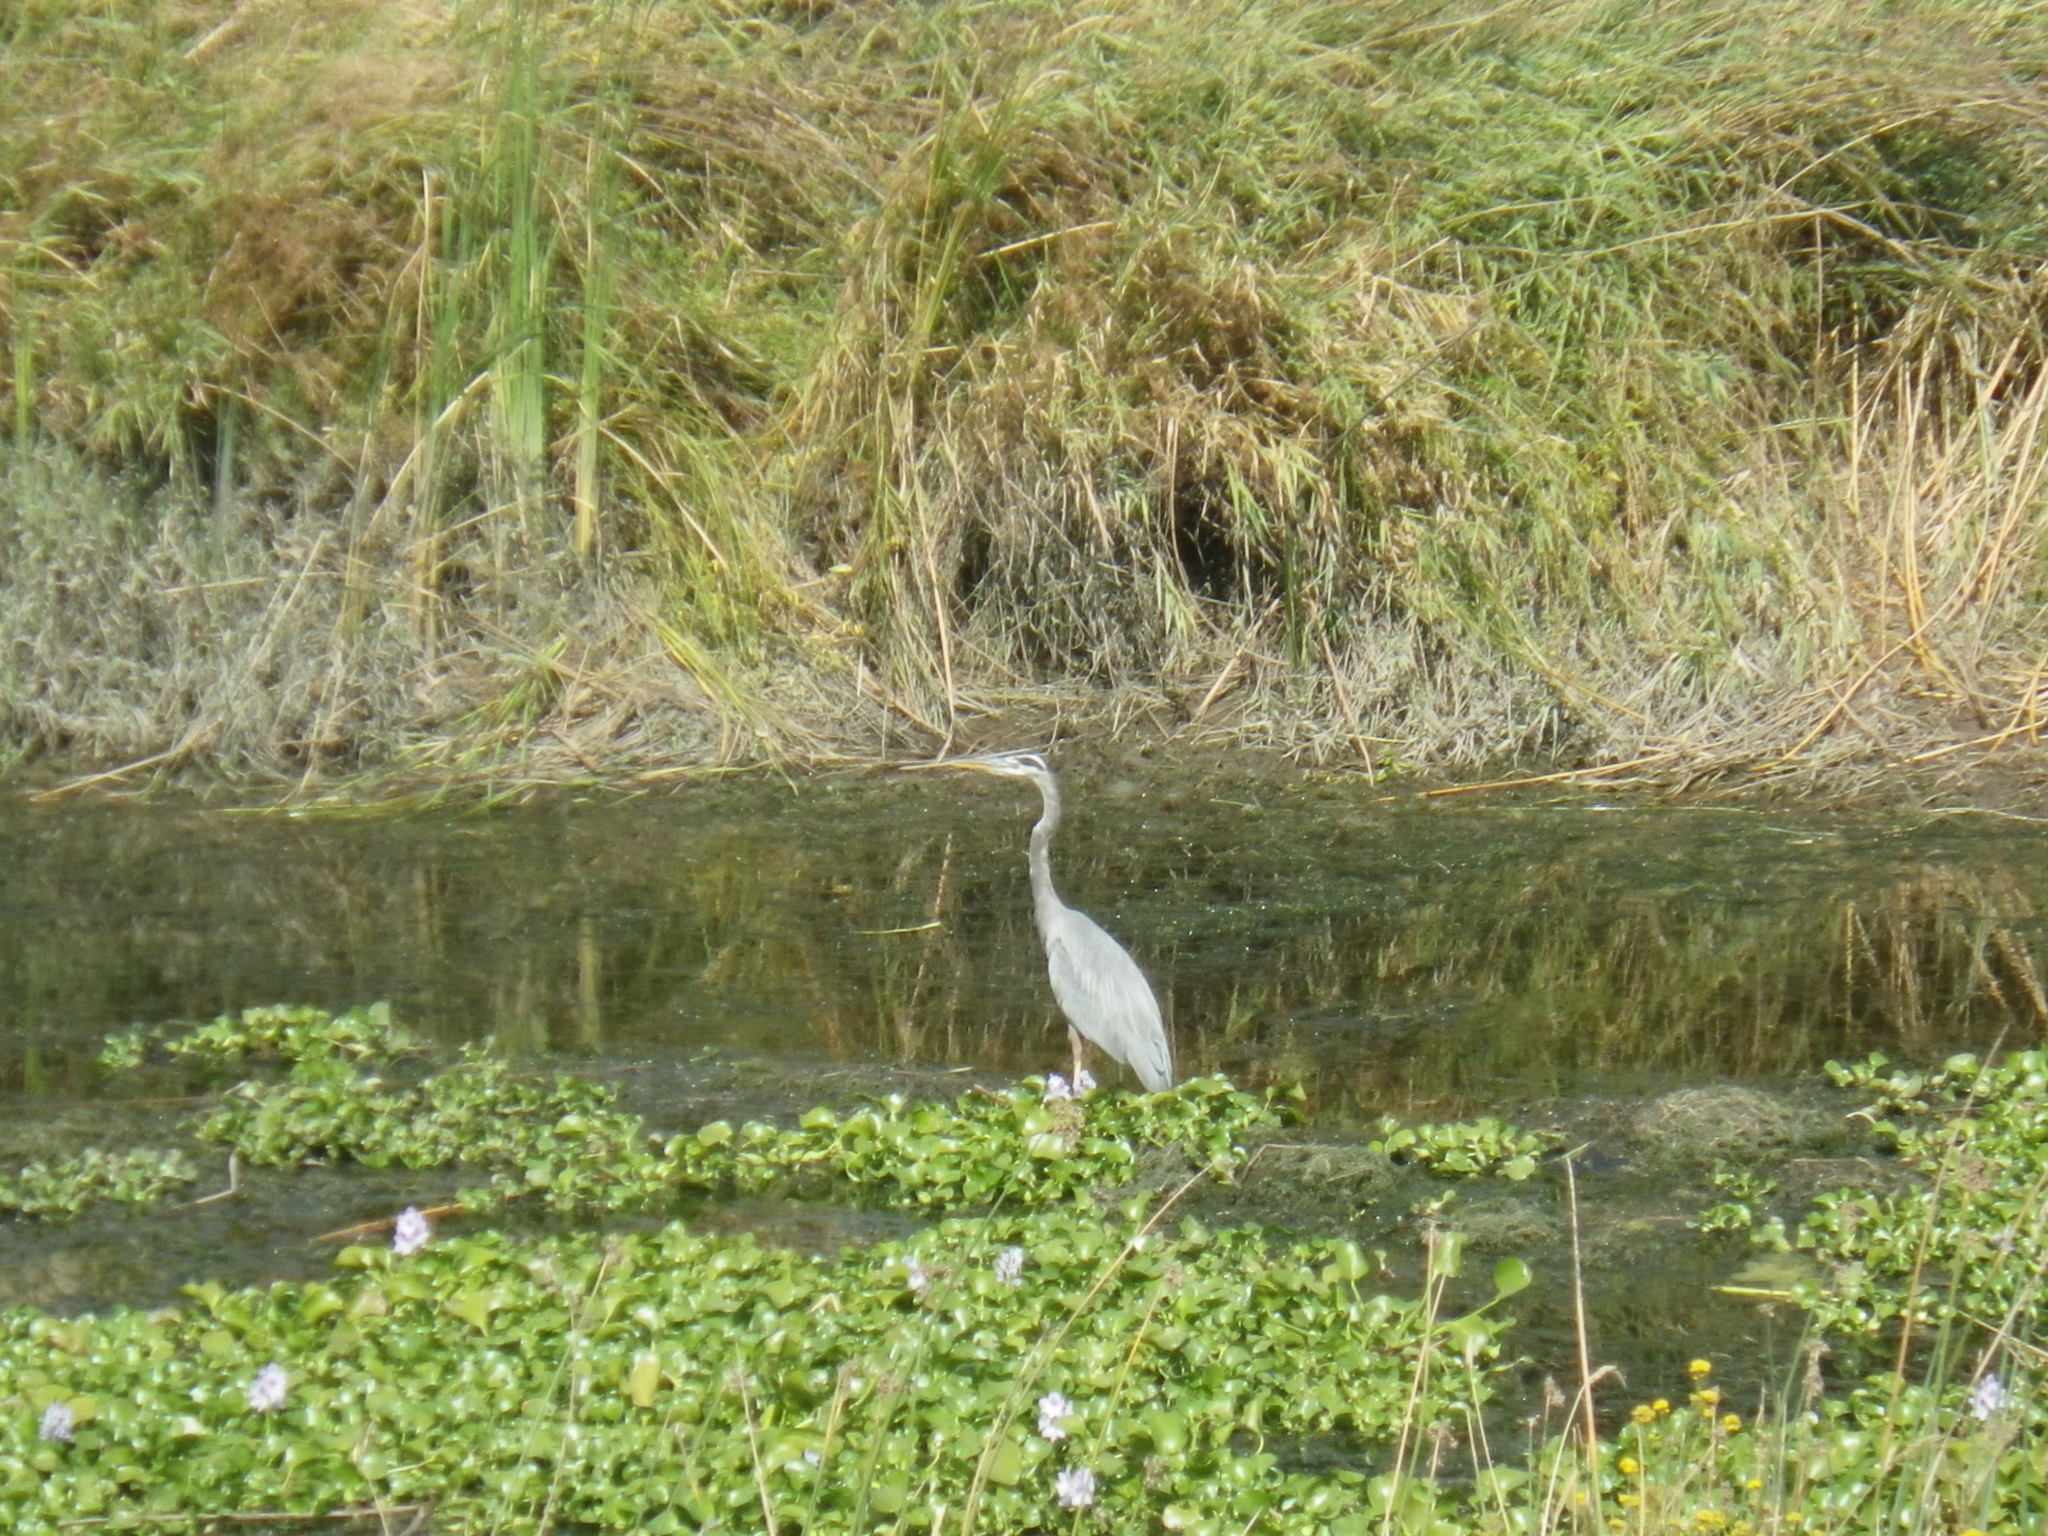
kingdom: Animalia
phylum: Chordata
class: Aves
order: Pelecaniformes
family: Ardeidae
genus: Ardea
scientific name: Ardea herodias
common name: Great blue heron
